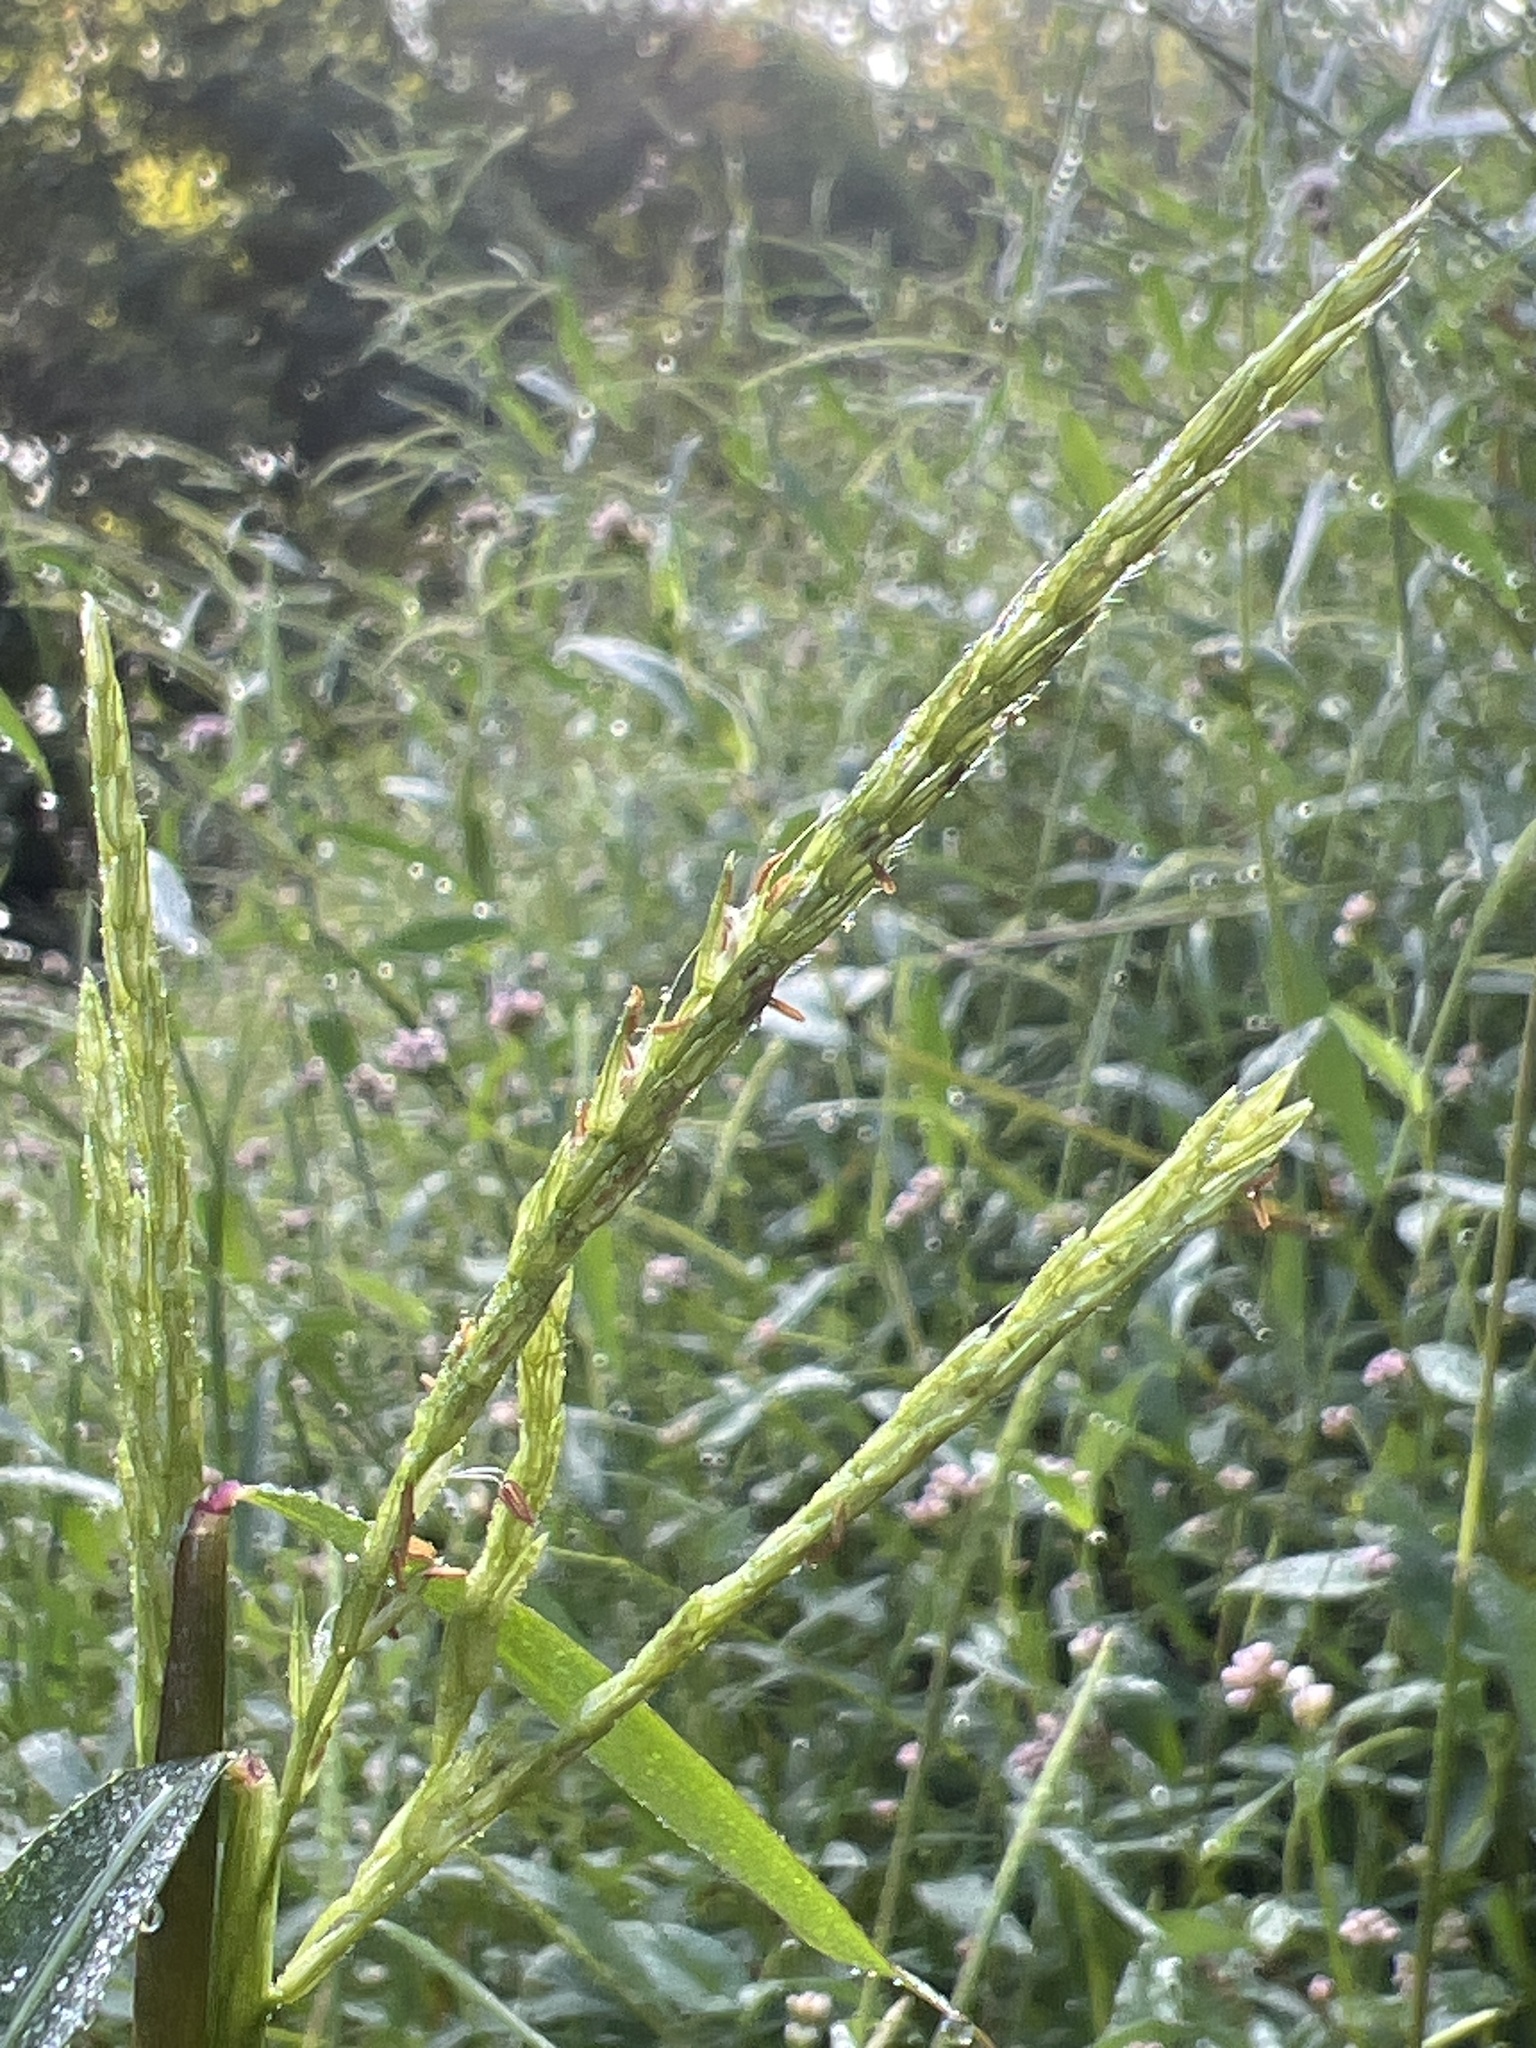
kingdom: Plantae
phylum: Tracheophyta
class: Liliopsida
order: Poales
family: Poaceae
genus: Microstegium
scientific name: Microstegium vimineum
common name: Japanese stiltgrass
